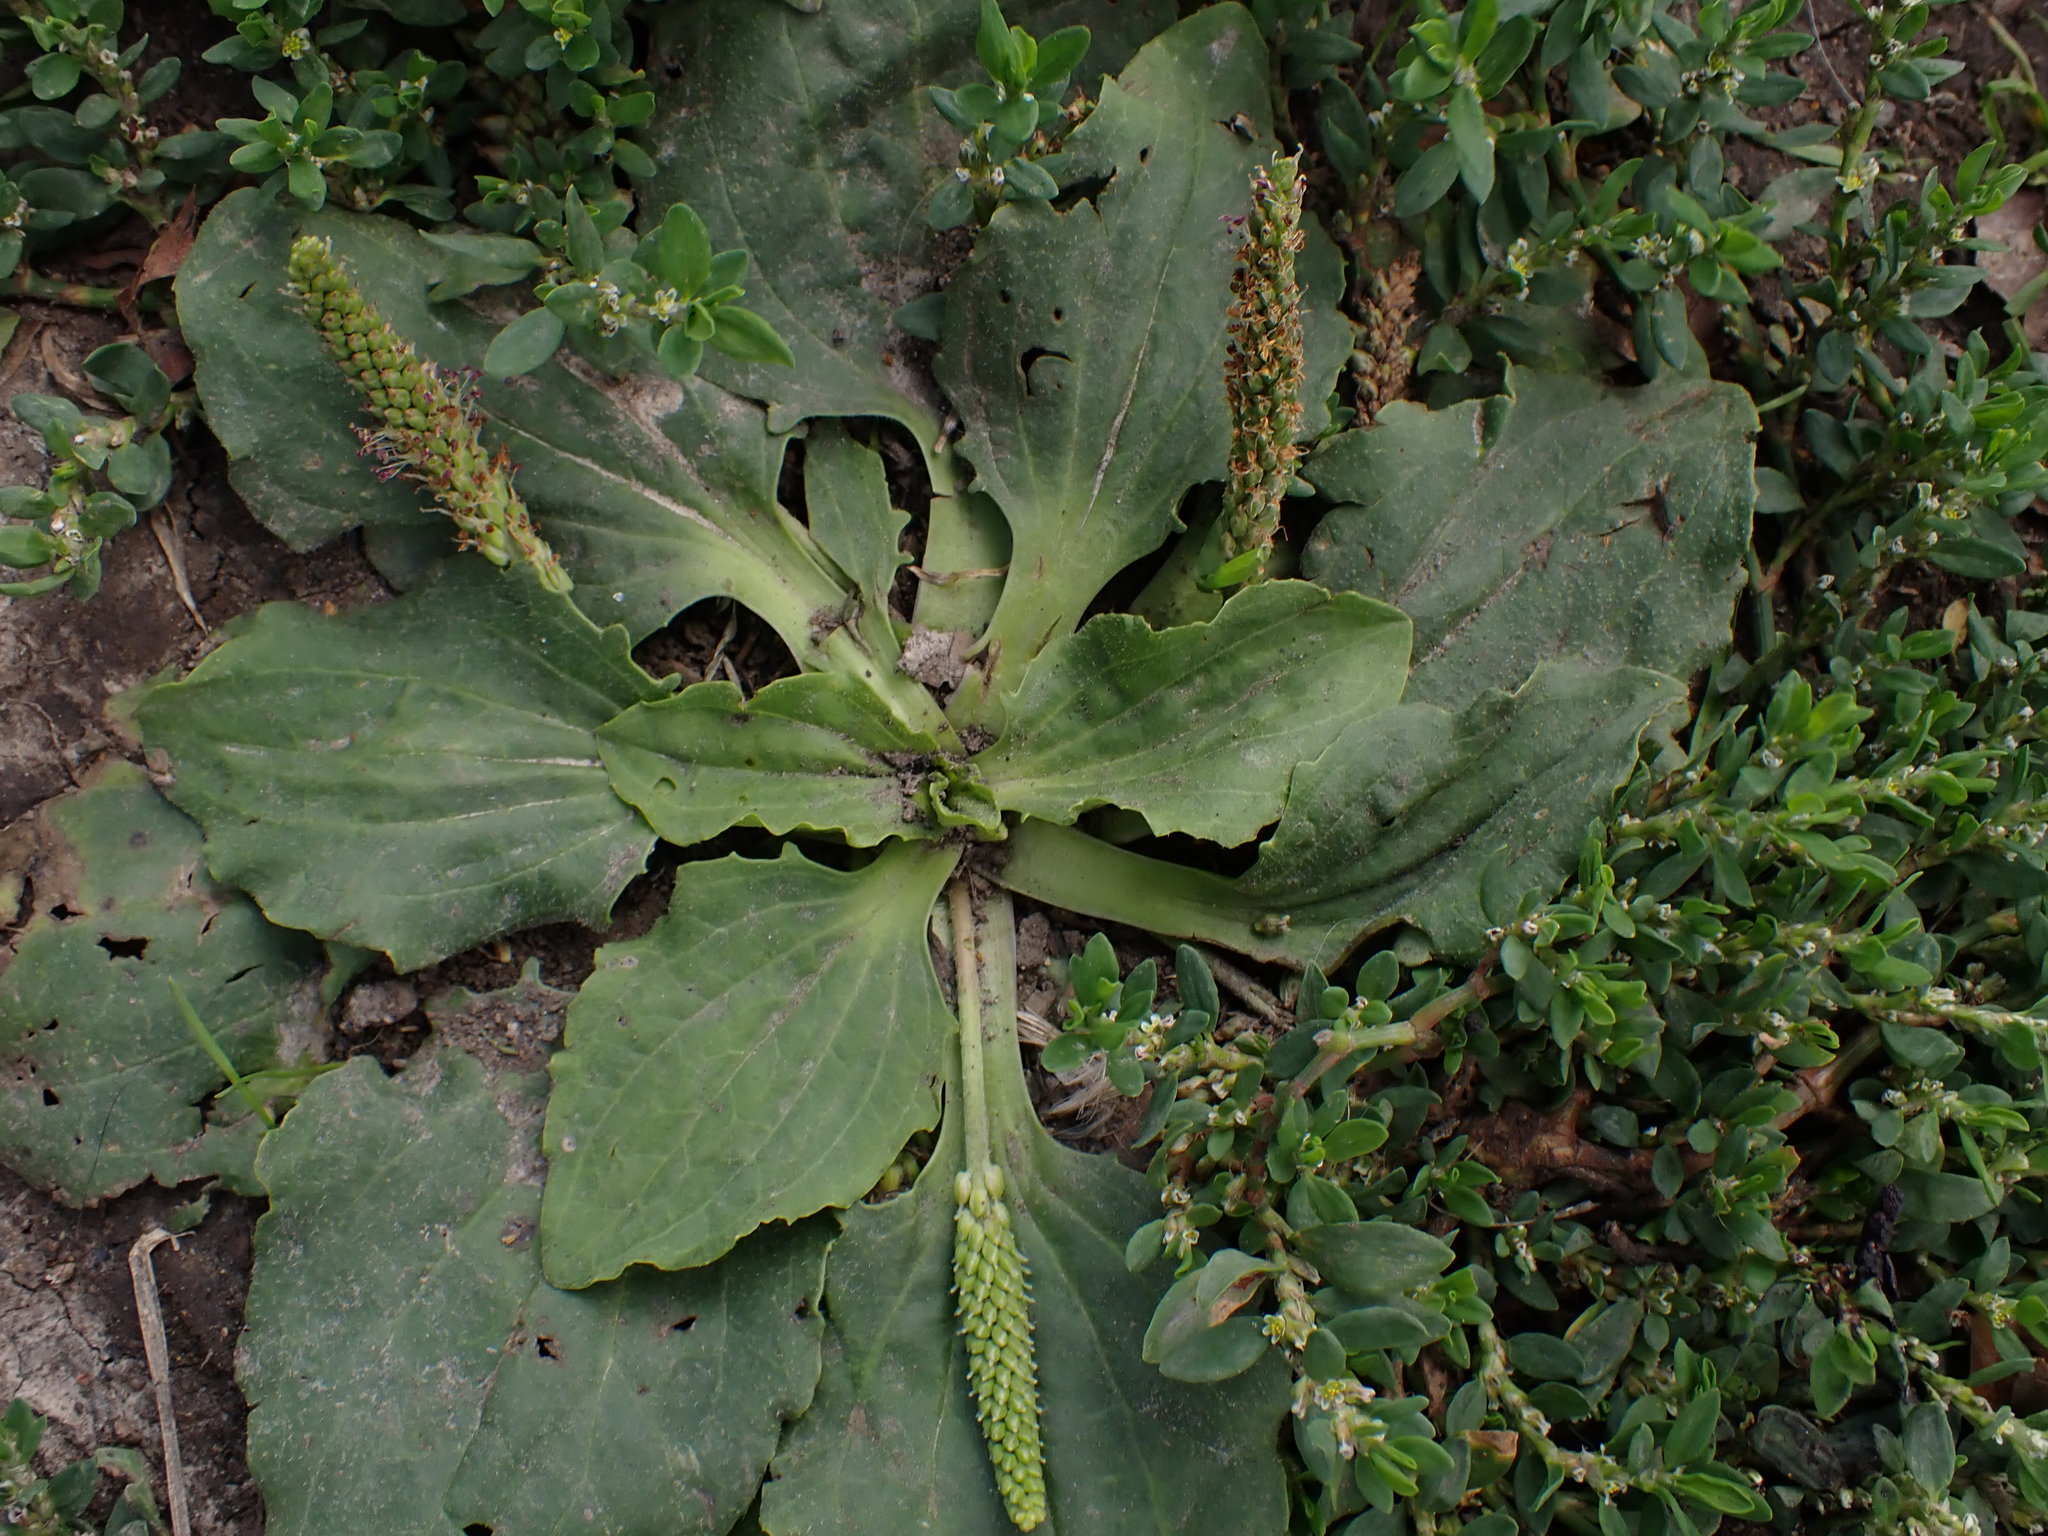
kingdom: Plantae
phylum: Tracheophyta
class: Magnoliopsida
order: Lamiales
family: Plantaginaceae
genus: Plantago
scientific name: Plantago major
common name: Common plantain
